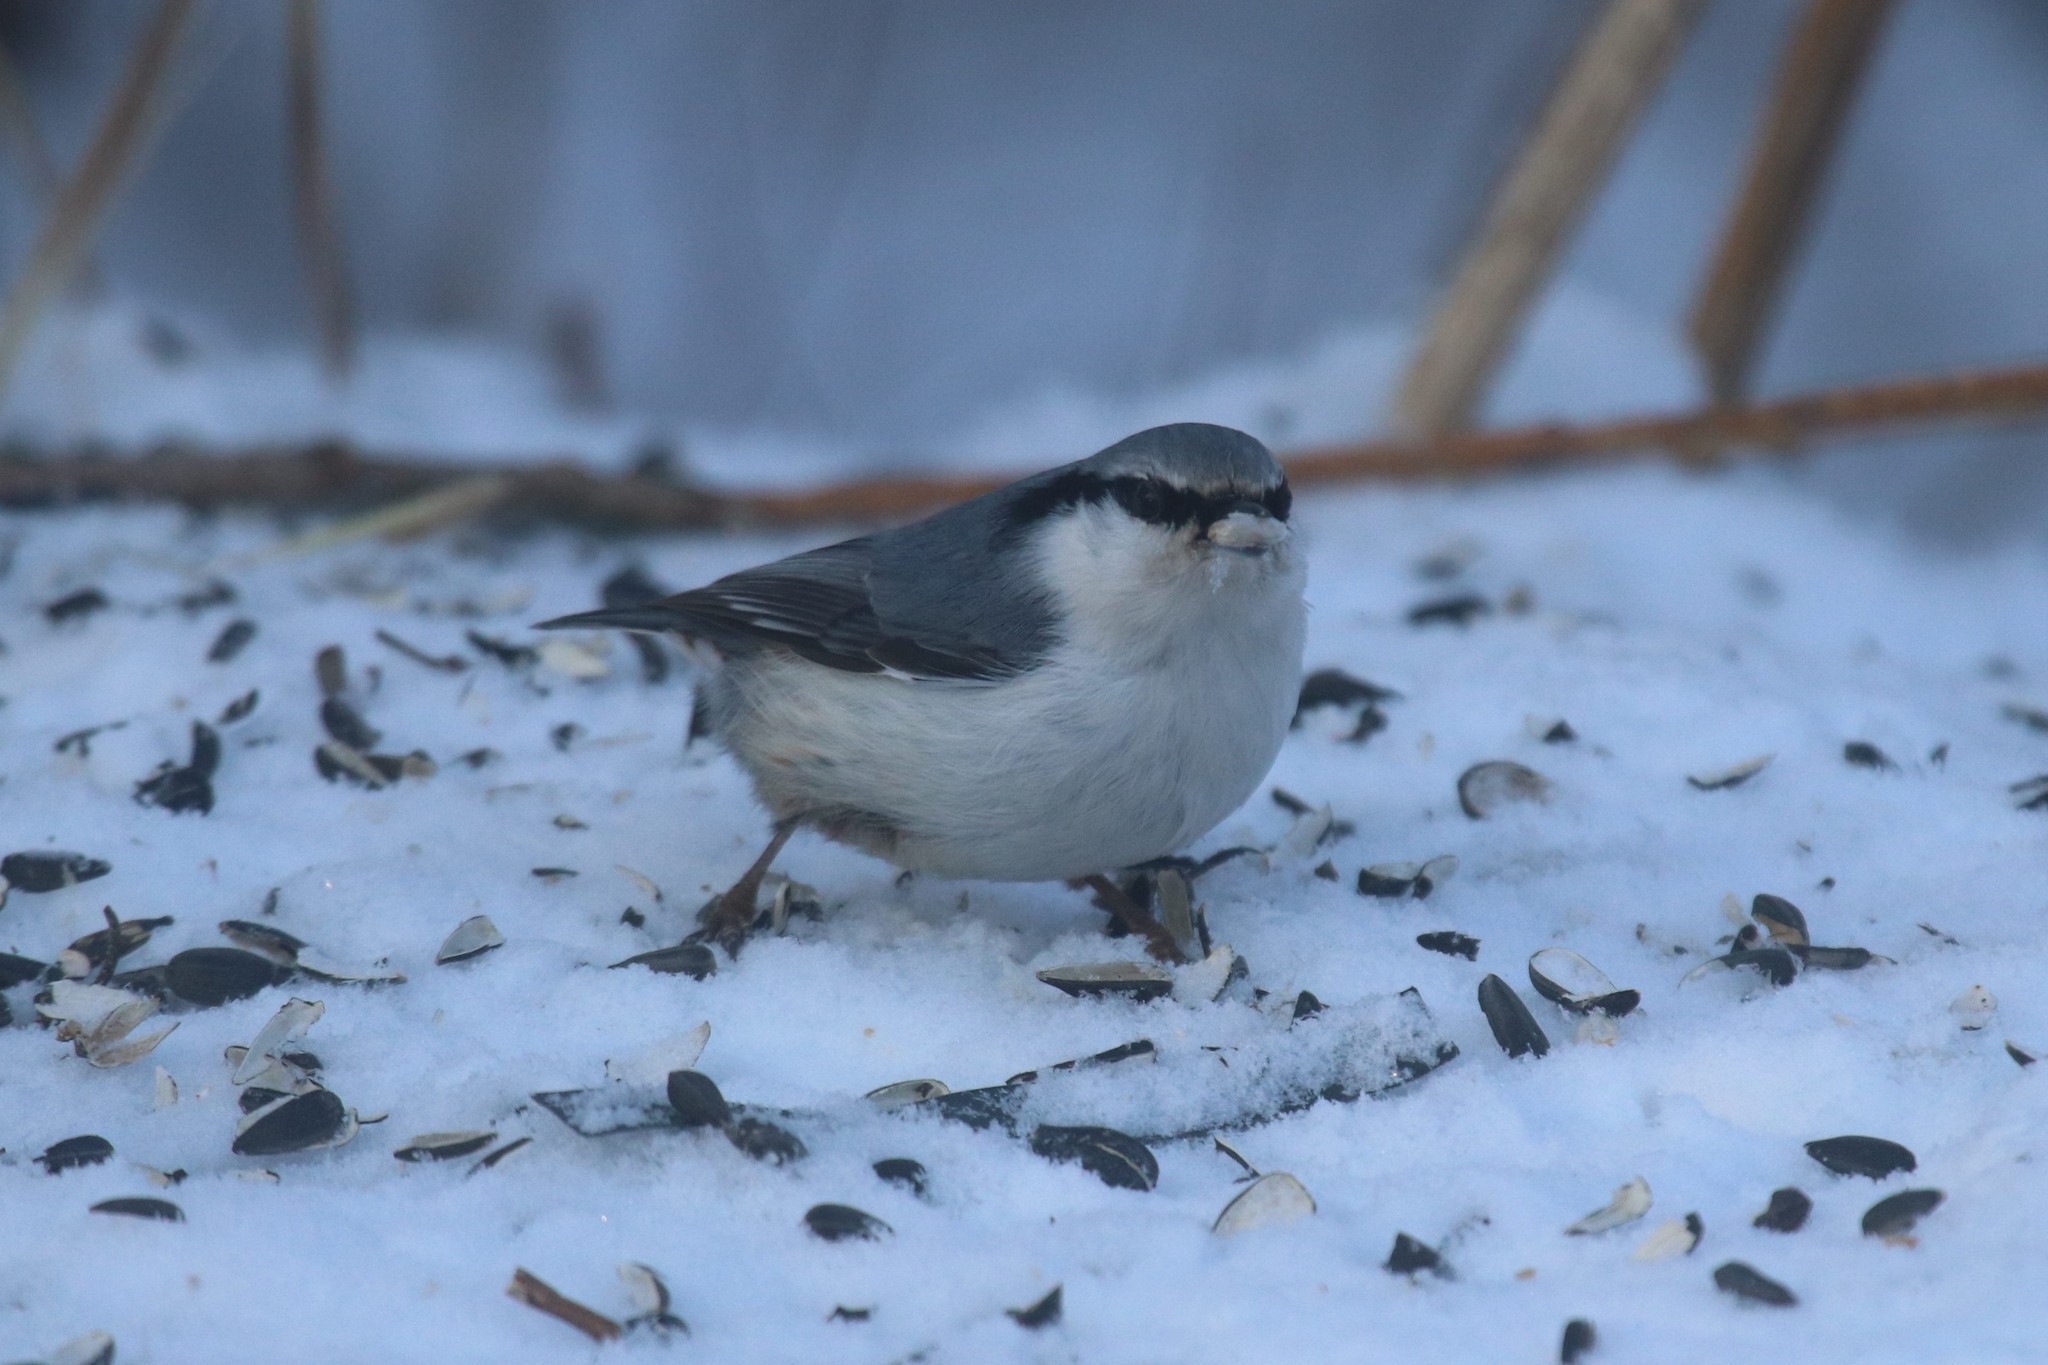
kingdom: Animalia
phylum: Chordata
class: Aves
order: Passeriformes
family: Sittidae
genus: Sitta
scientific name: Sitta europaea
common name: Eurasian nuthatch
